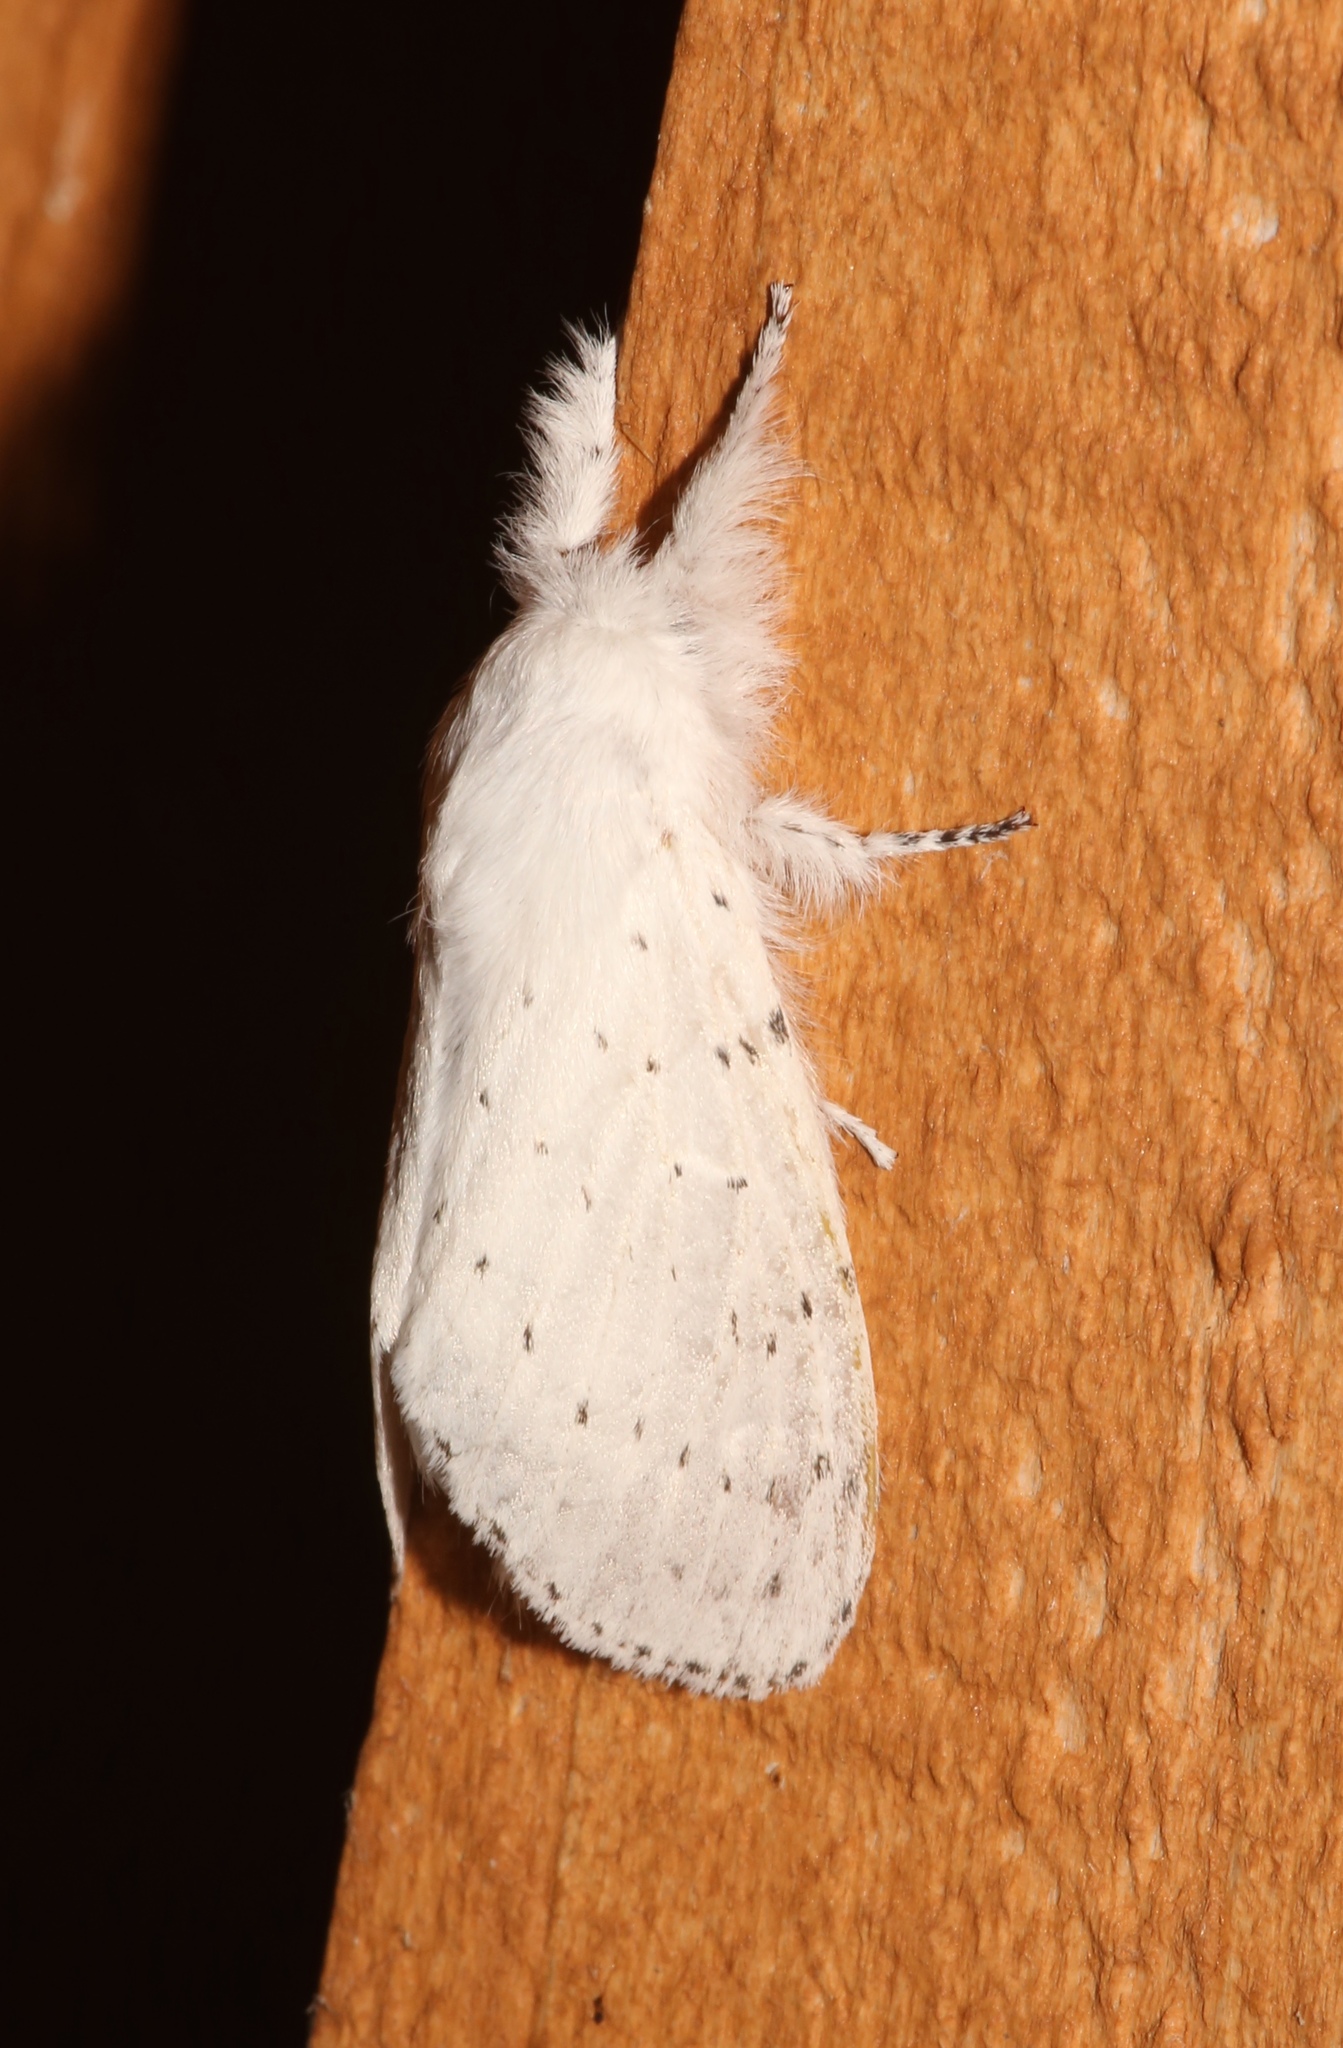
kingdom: Animalia
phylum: Arthropoda
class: Insecta
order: Lepidoptera
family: Lasiocampidae
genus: Artace
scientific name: Artace cribrarius
